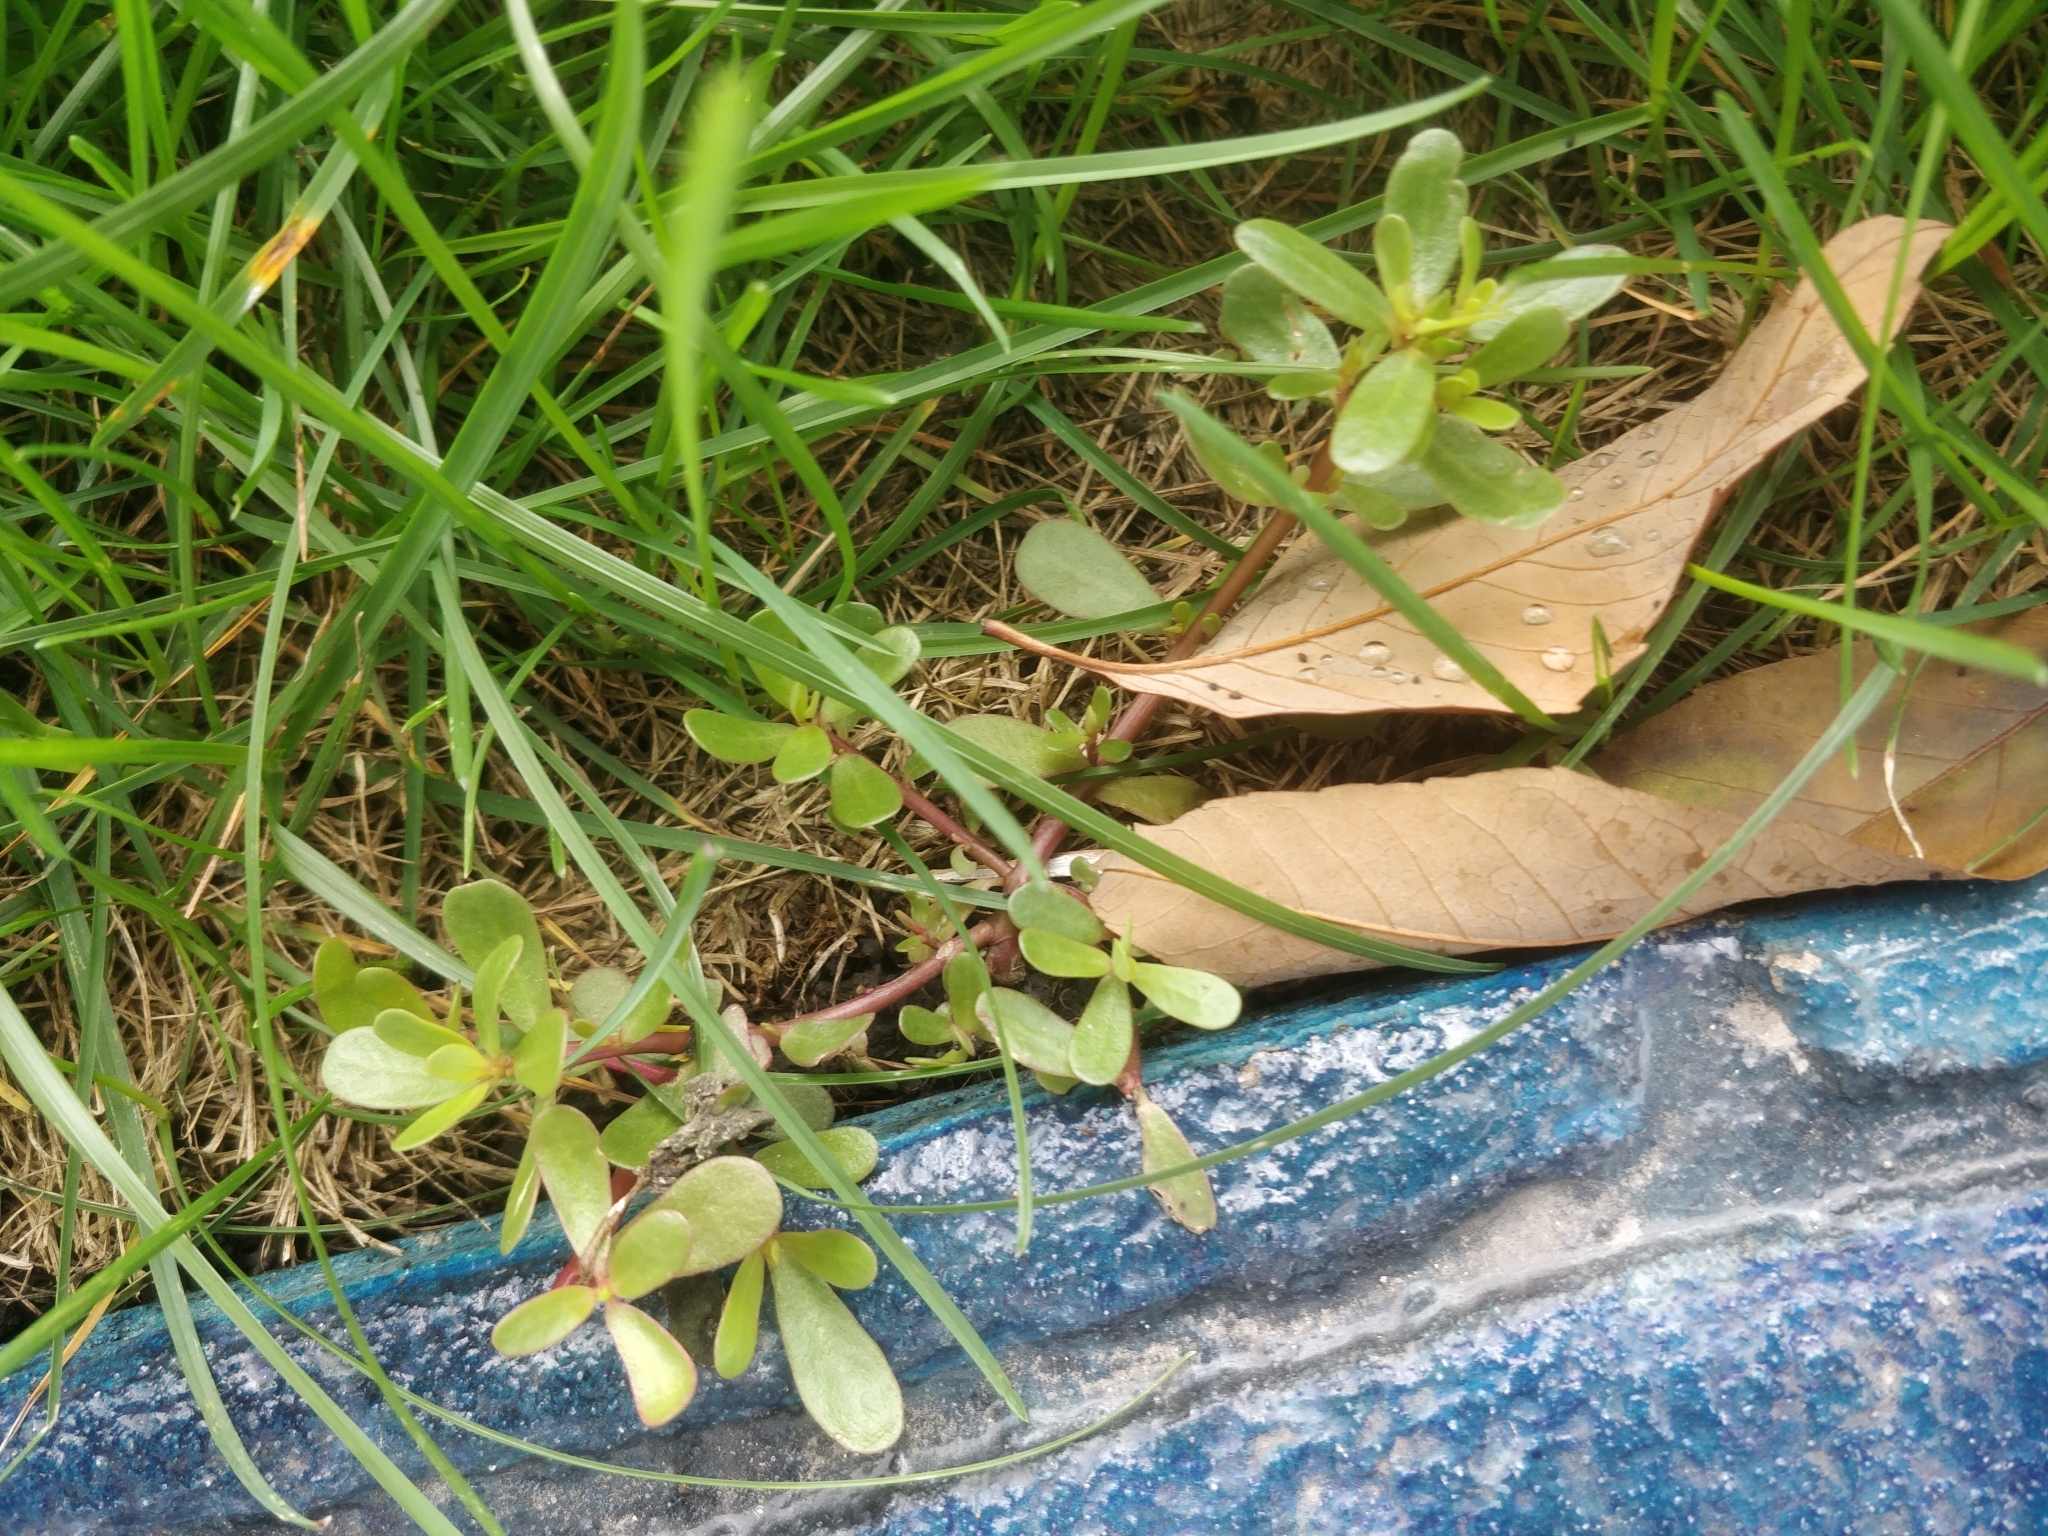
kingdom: Plantae
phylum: Tracheophyta
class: Magnoliopsida
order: Caryophyllales
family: Portulacaceae
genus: Portulaca
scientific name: Portulaca oleracea
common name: Common purslane
